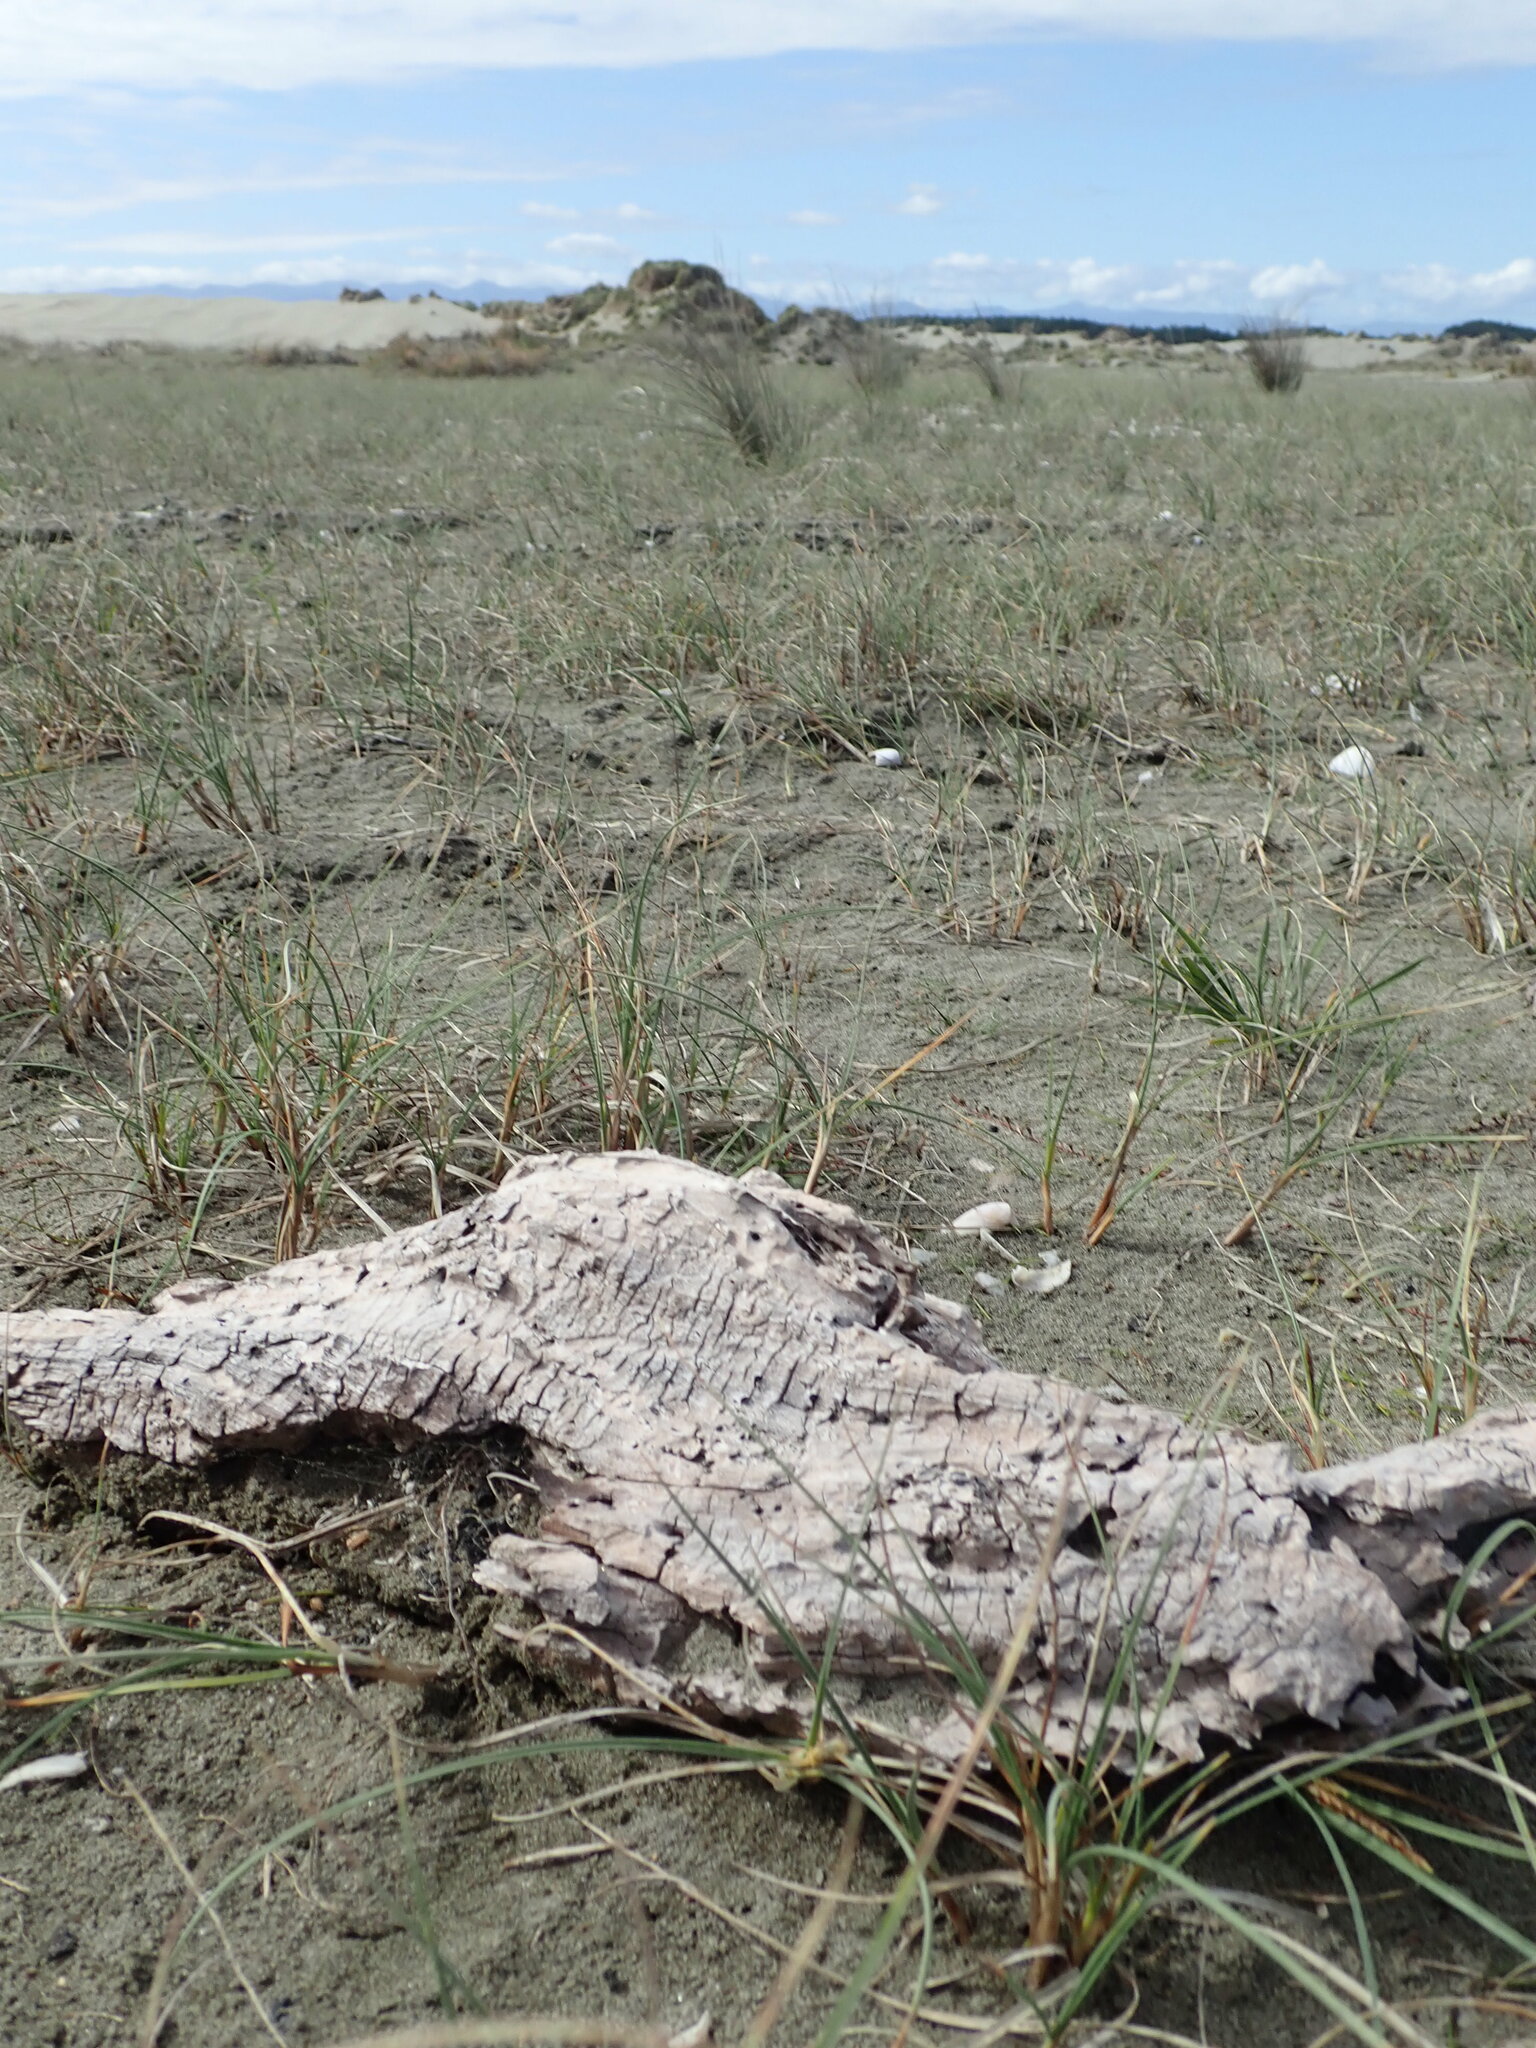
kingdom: Animalia
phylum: Arthropoda
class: Insecta
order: Dermaptera
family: Anisolabididae
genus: Anisolabis
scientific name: Anisolabis littorea
